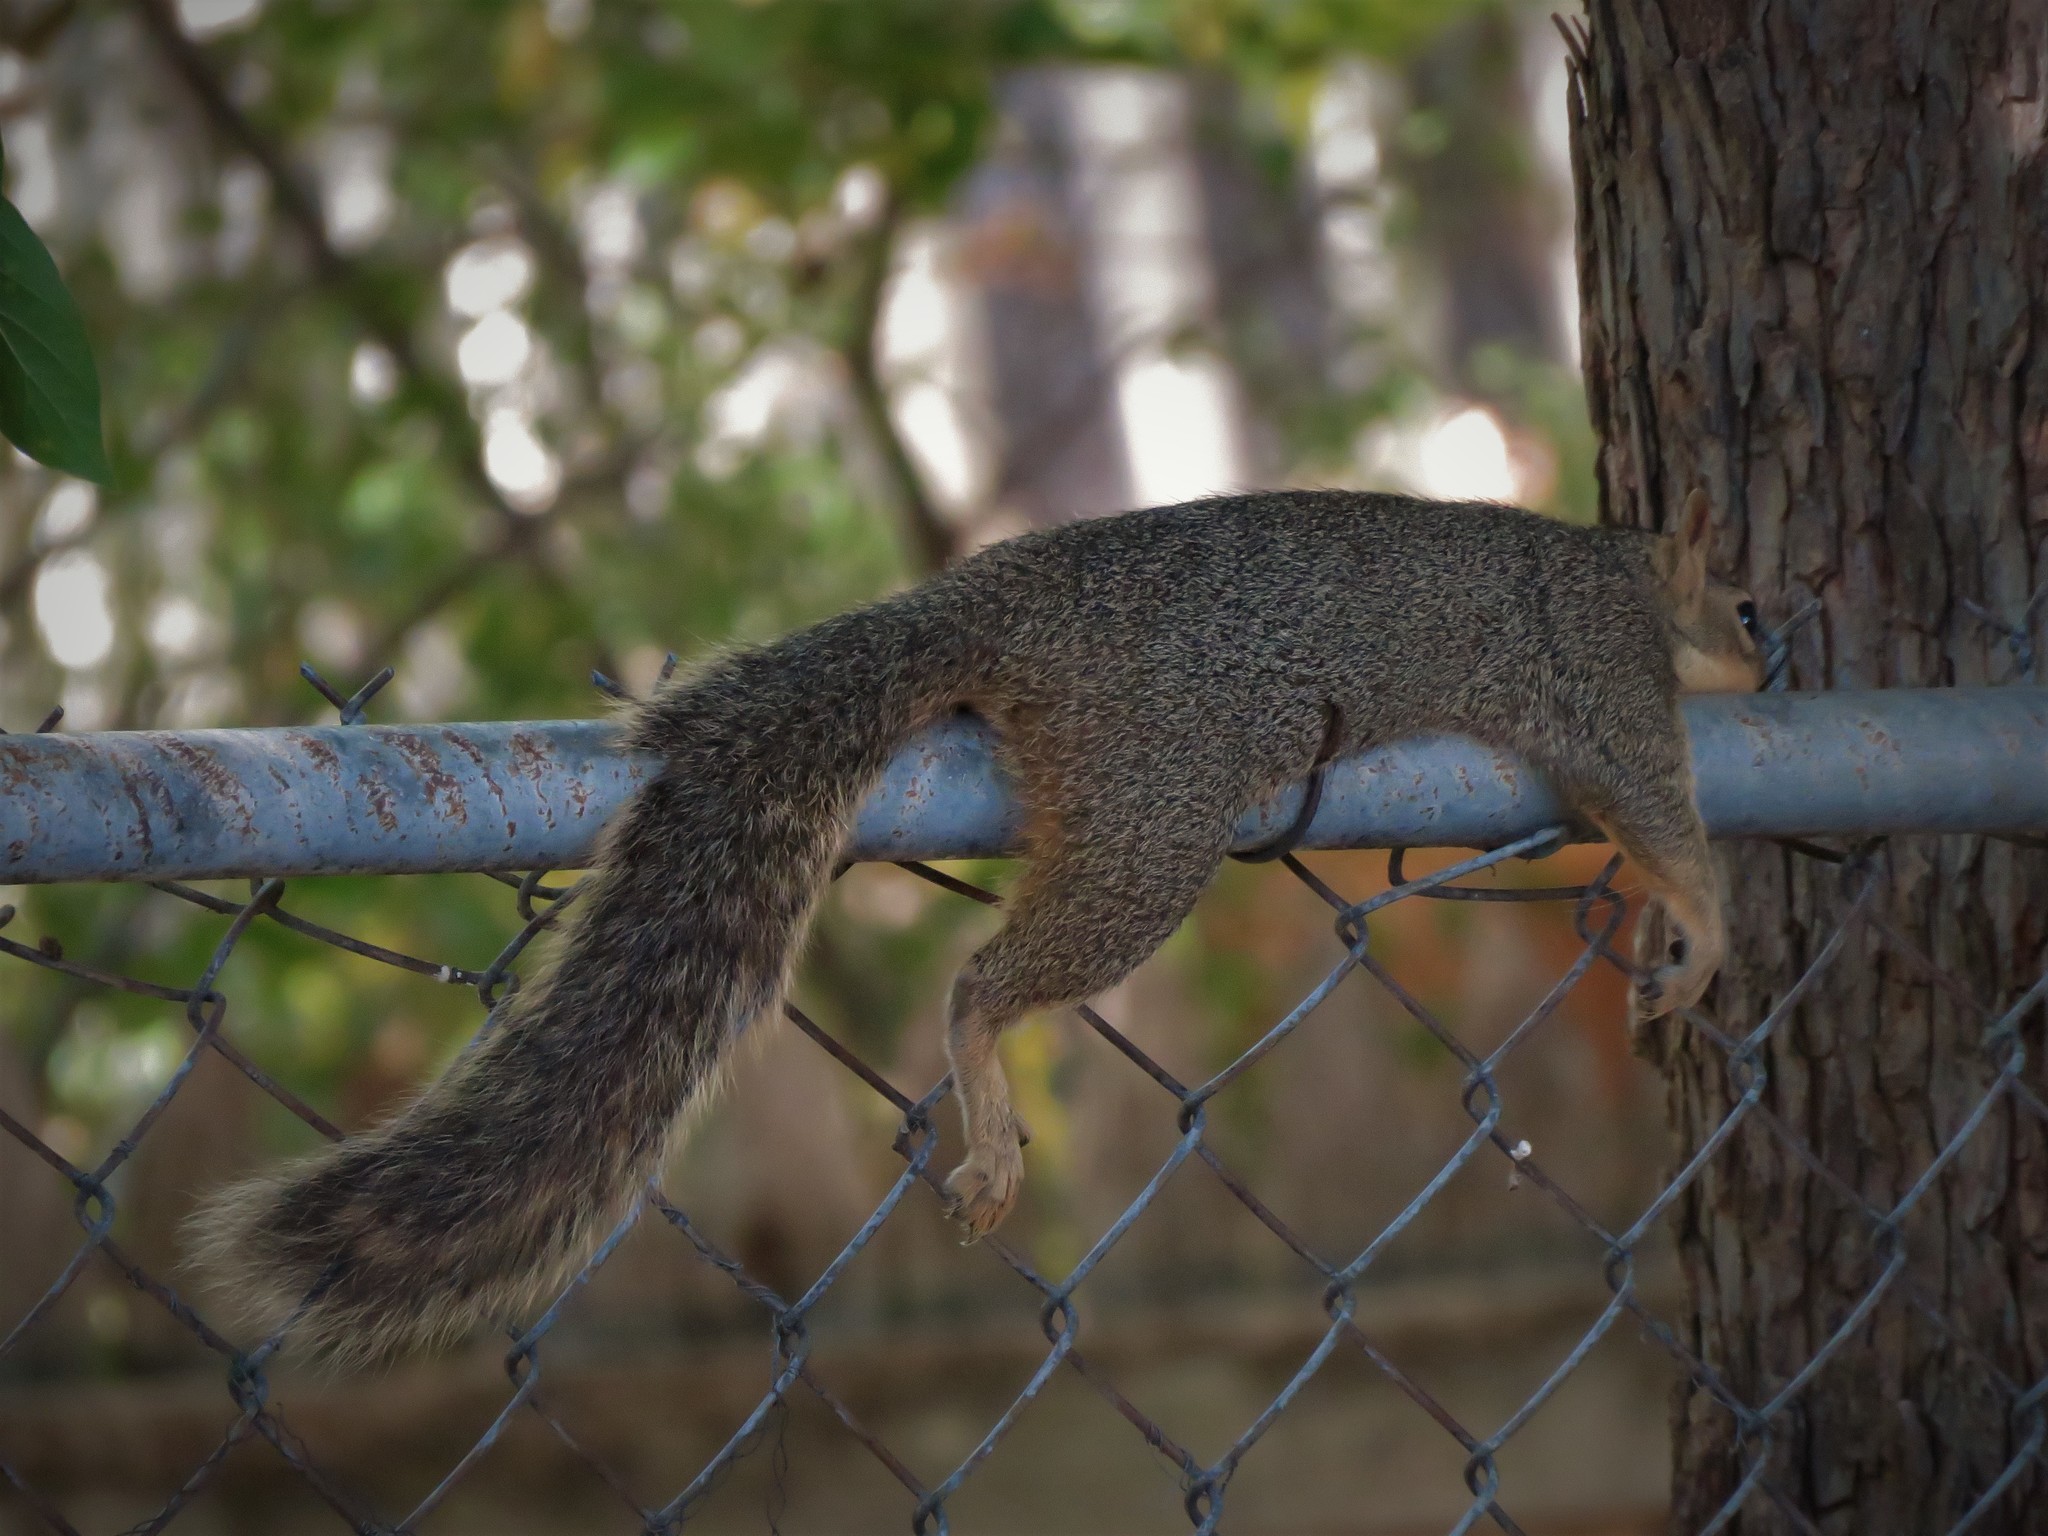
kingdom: Animalia
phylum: Chordata
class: Mammalia
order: Rodentia
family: Sciuridae
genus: Sciurus
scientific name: Sciurus niger
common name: Fox squirrel
